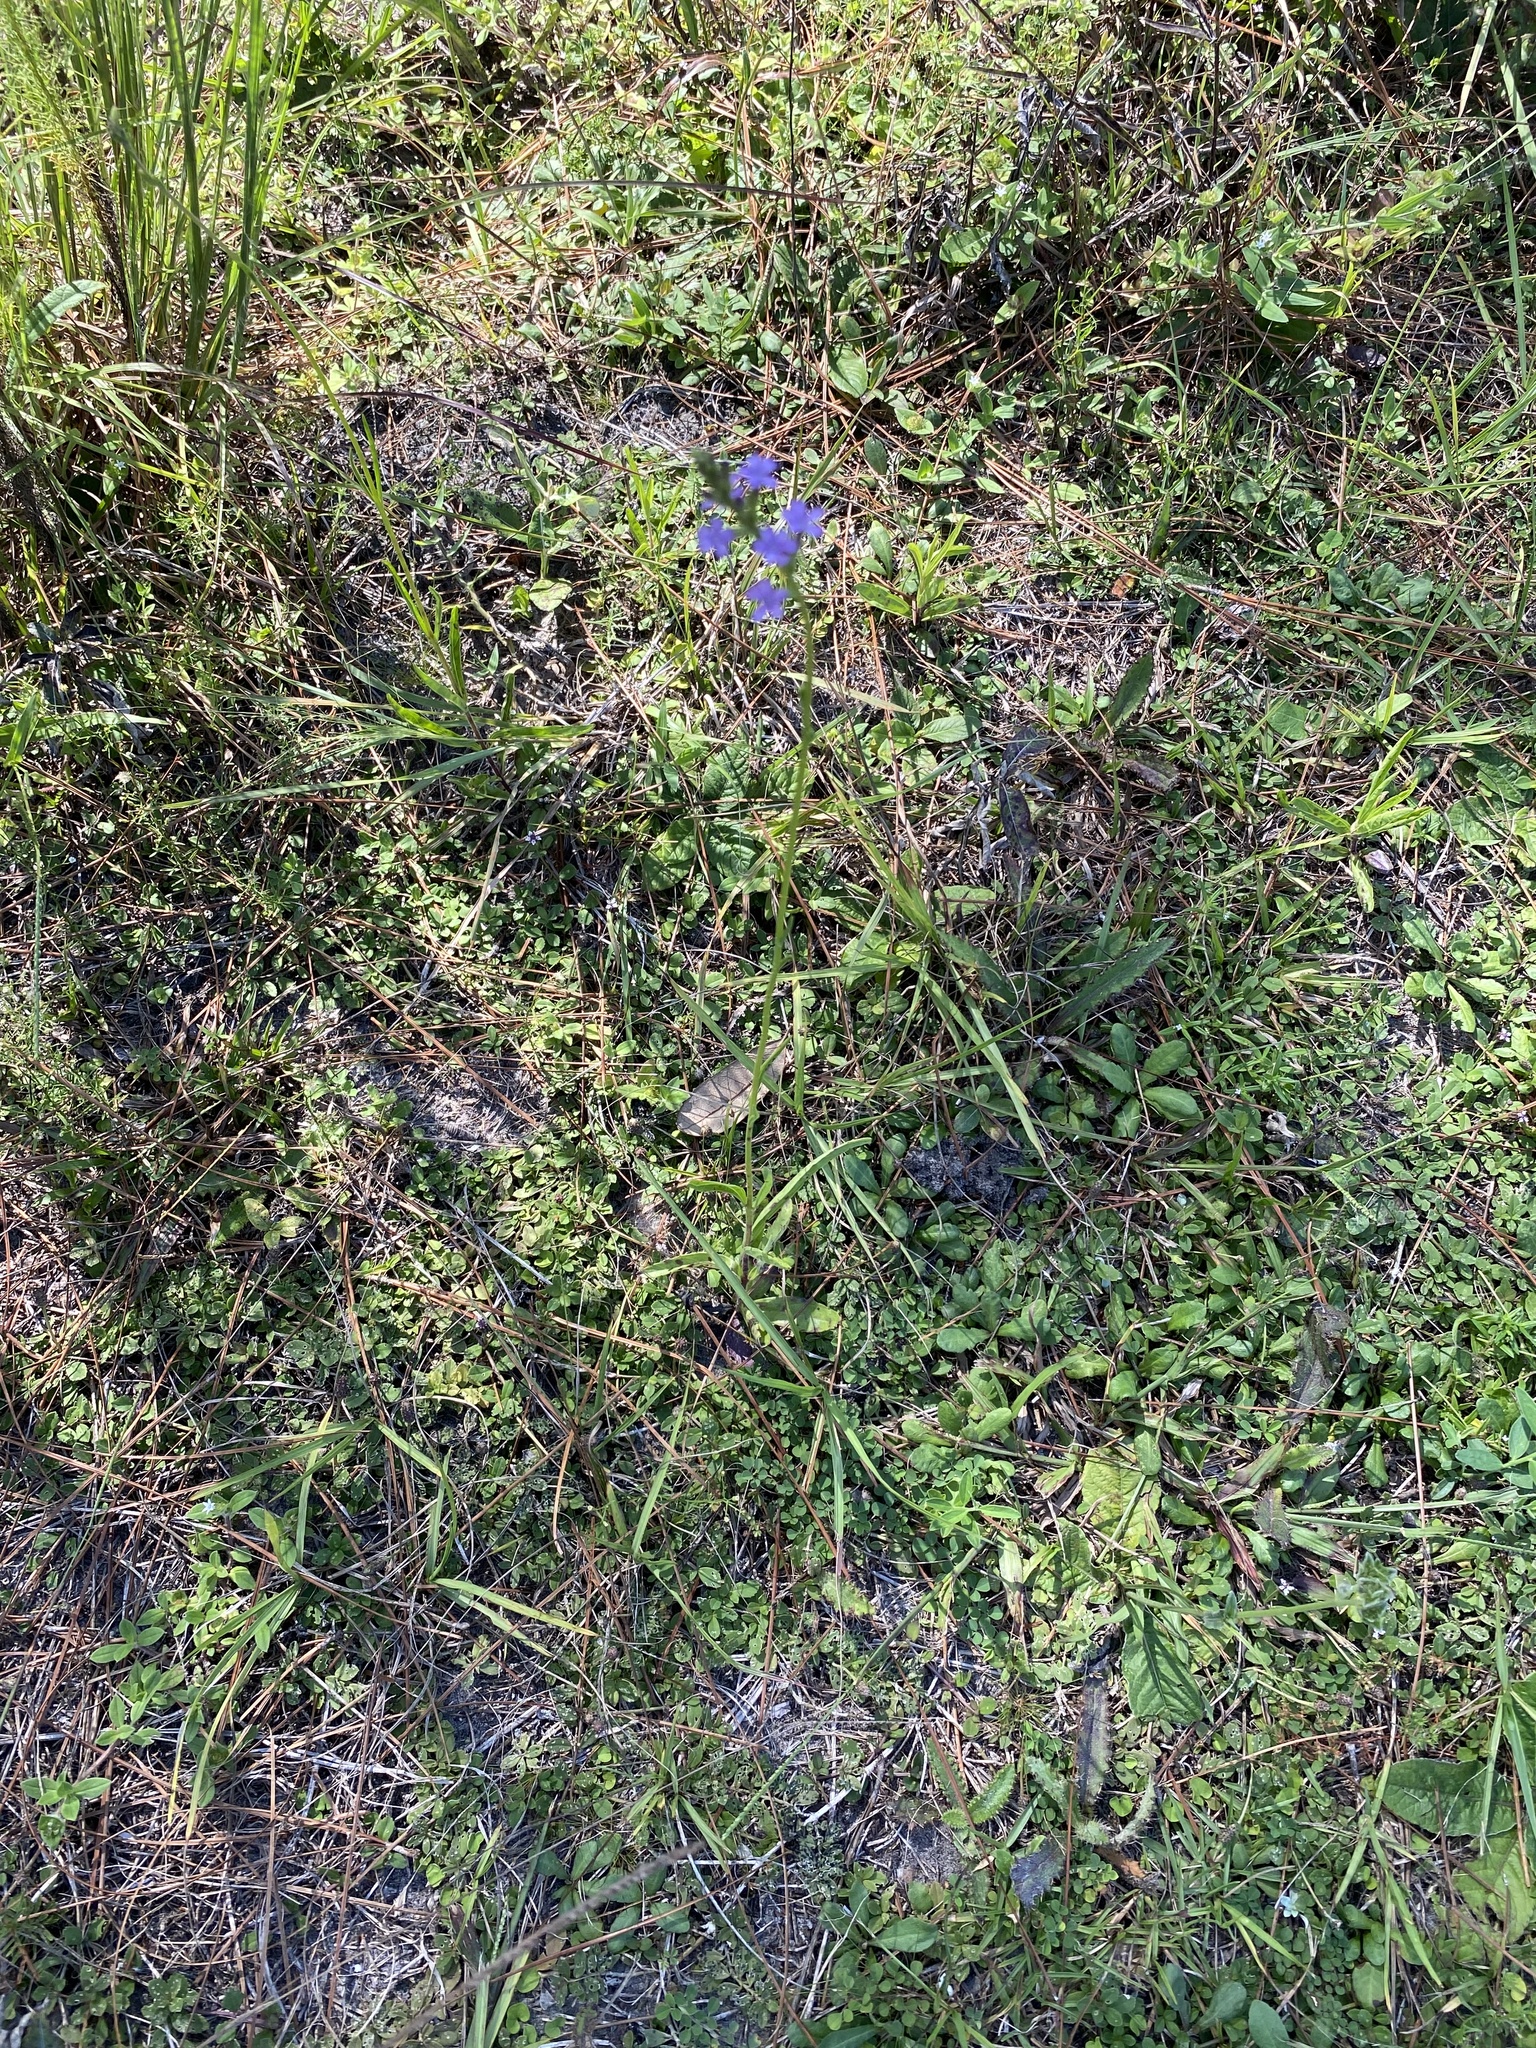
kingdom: Plantae
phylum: Tracheophyta
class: Magnoliopsida
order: Lamiales
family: Orobanchaceae
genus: Buchnera
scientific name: Buchnera floridana
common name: Florida bluehearts
